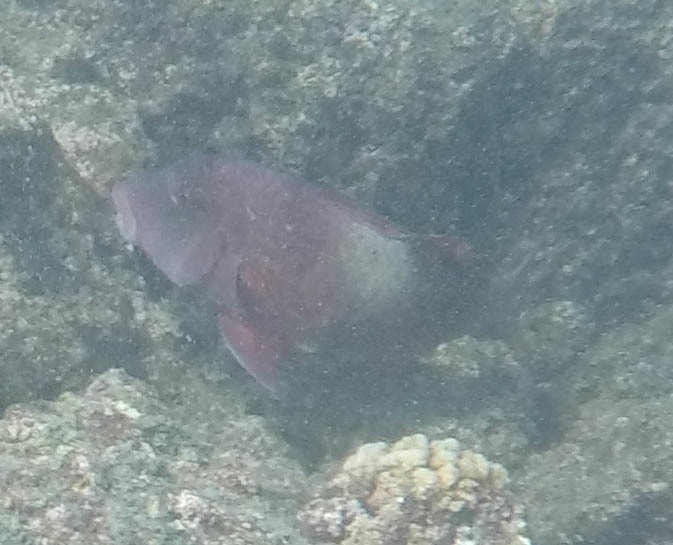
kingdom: Animalia
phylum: Chordata
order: Perciformes
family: Mullidae
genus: Parupeneus
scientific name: Parupeneus multifasciatus
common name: Manybar goatfish
